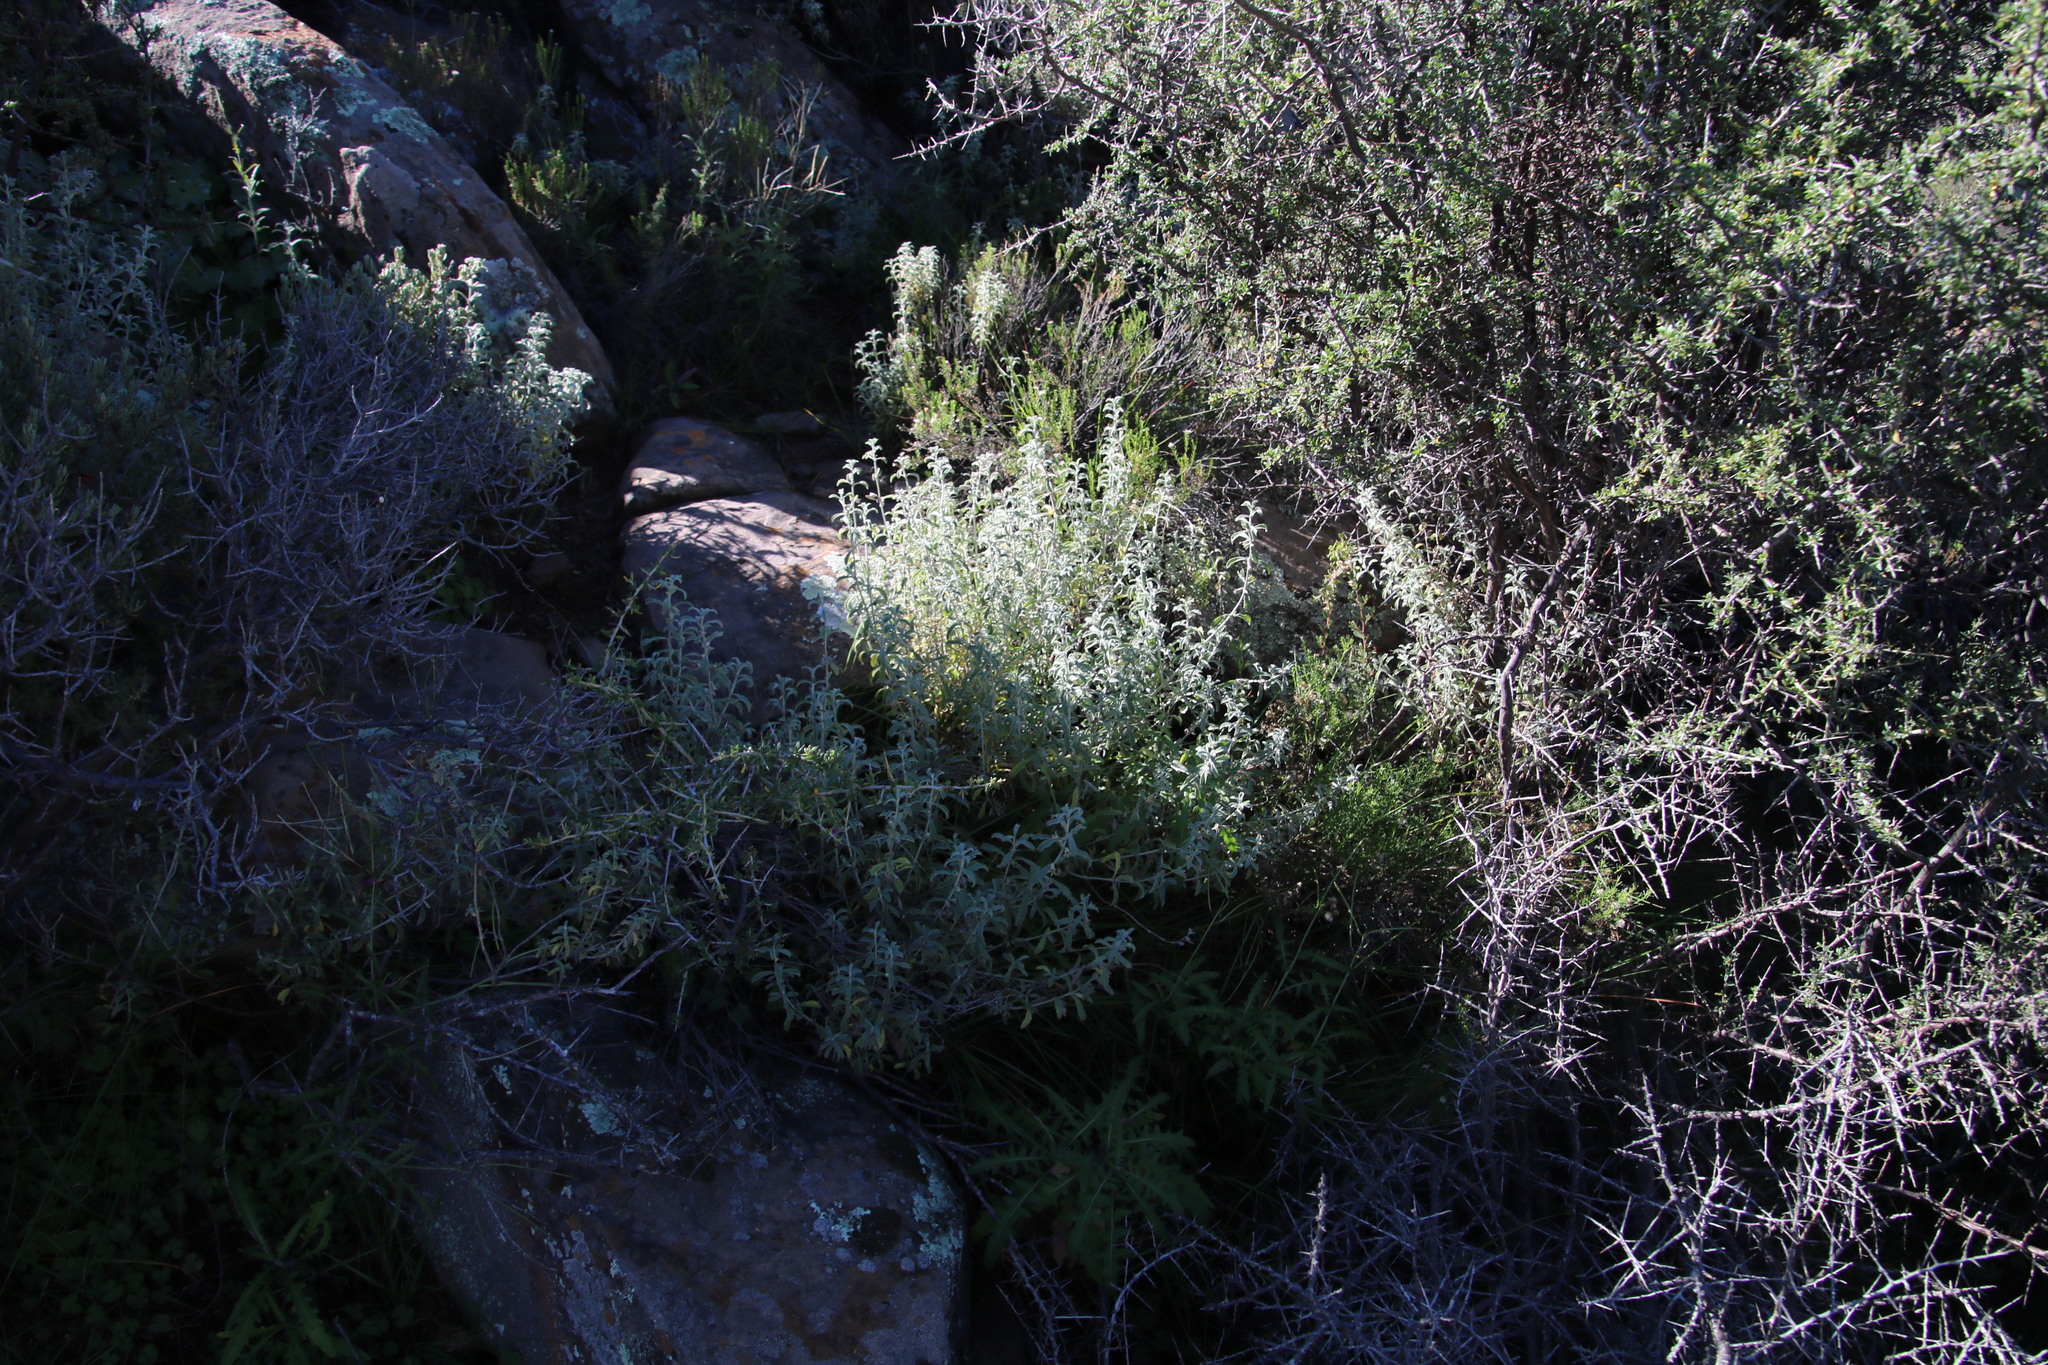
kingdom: Plantae
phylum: Tracheophyta
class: Magnoliopsida
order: Lamiales
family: Lamiaceae
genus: Stachys
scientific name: Stachys cuneata
